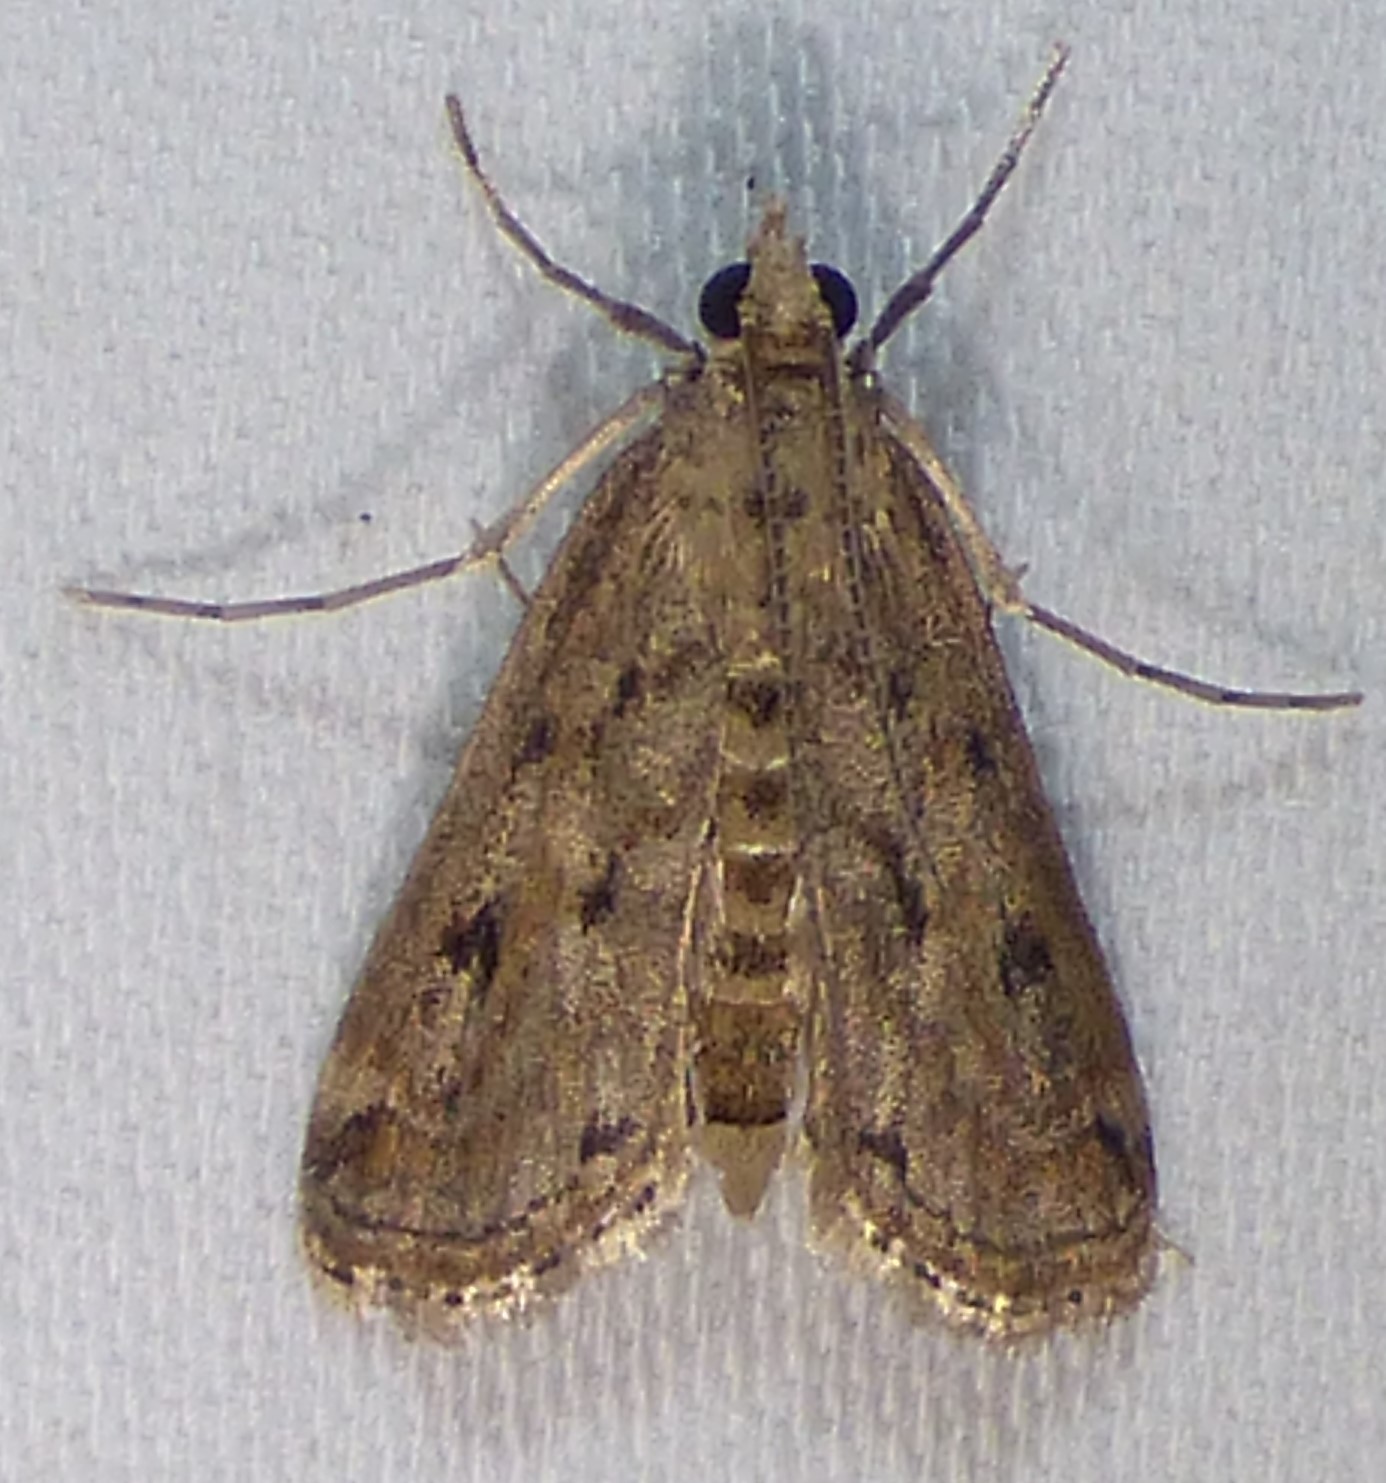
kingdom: Animalia
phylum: Arthropoda
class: Insecta
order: Lepidoptera
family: Crambidae
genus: Parapoynx
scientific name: Parapoynx allionealis
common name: Bladderwort casemaker
